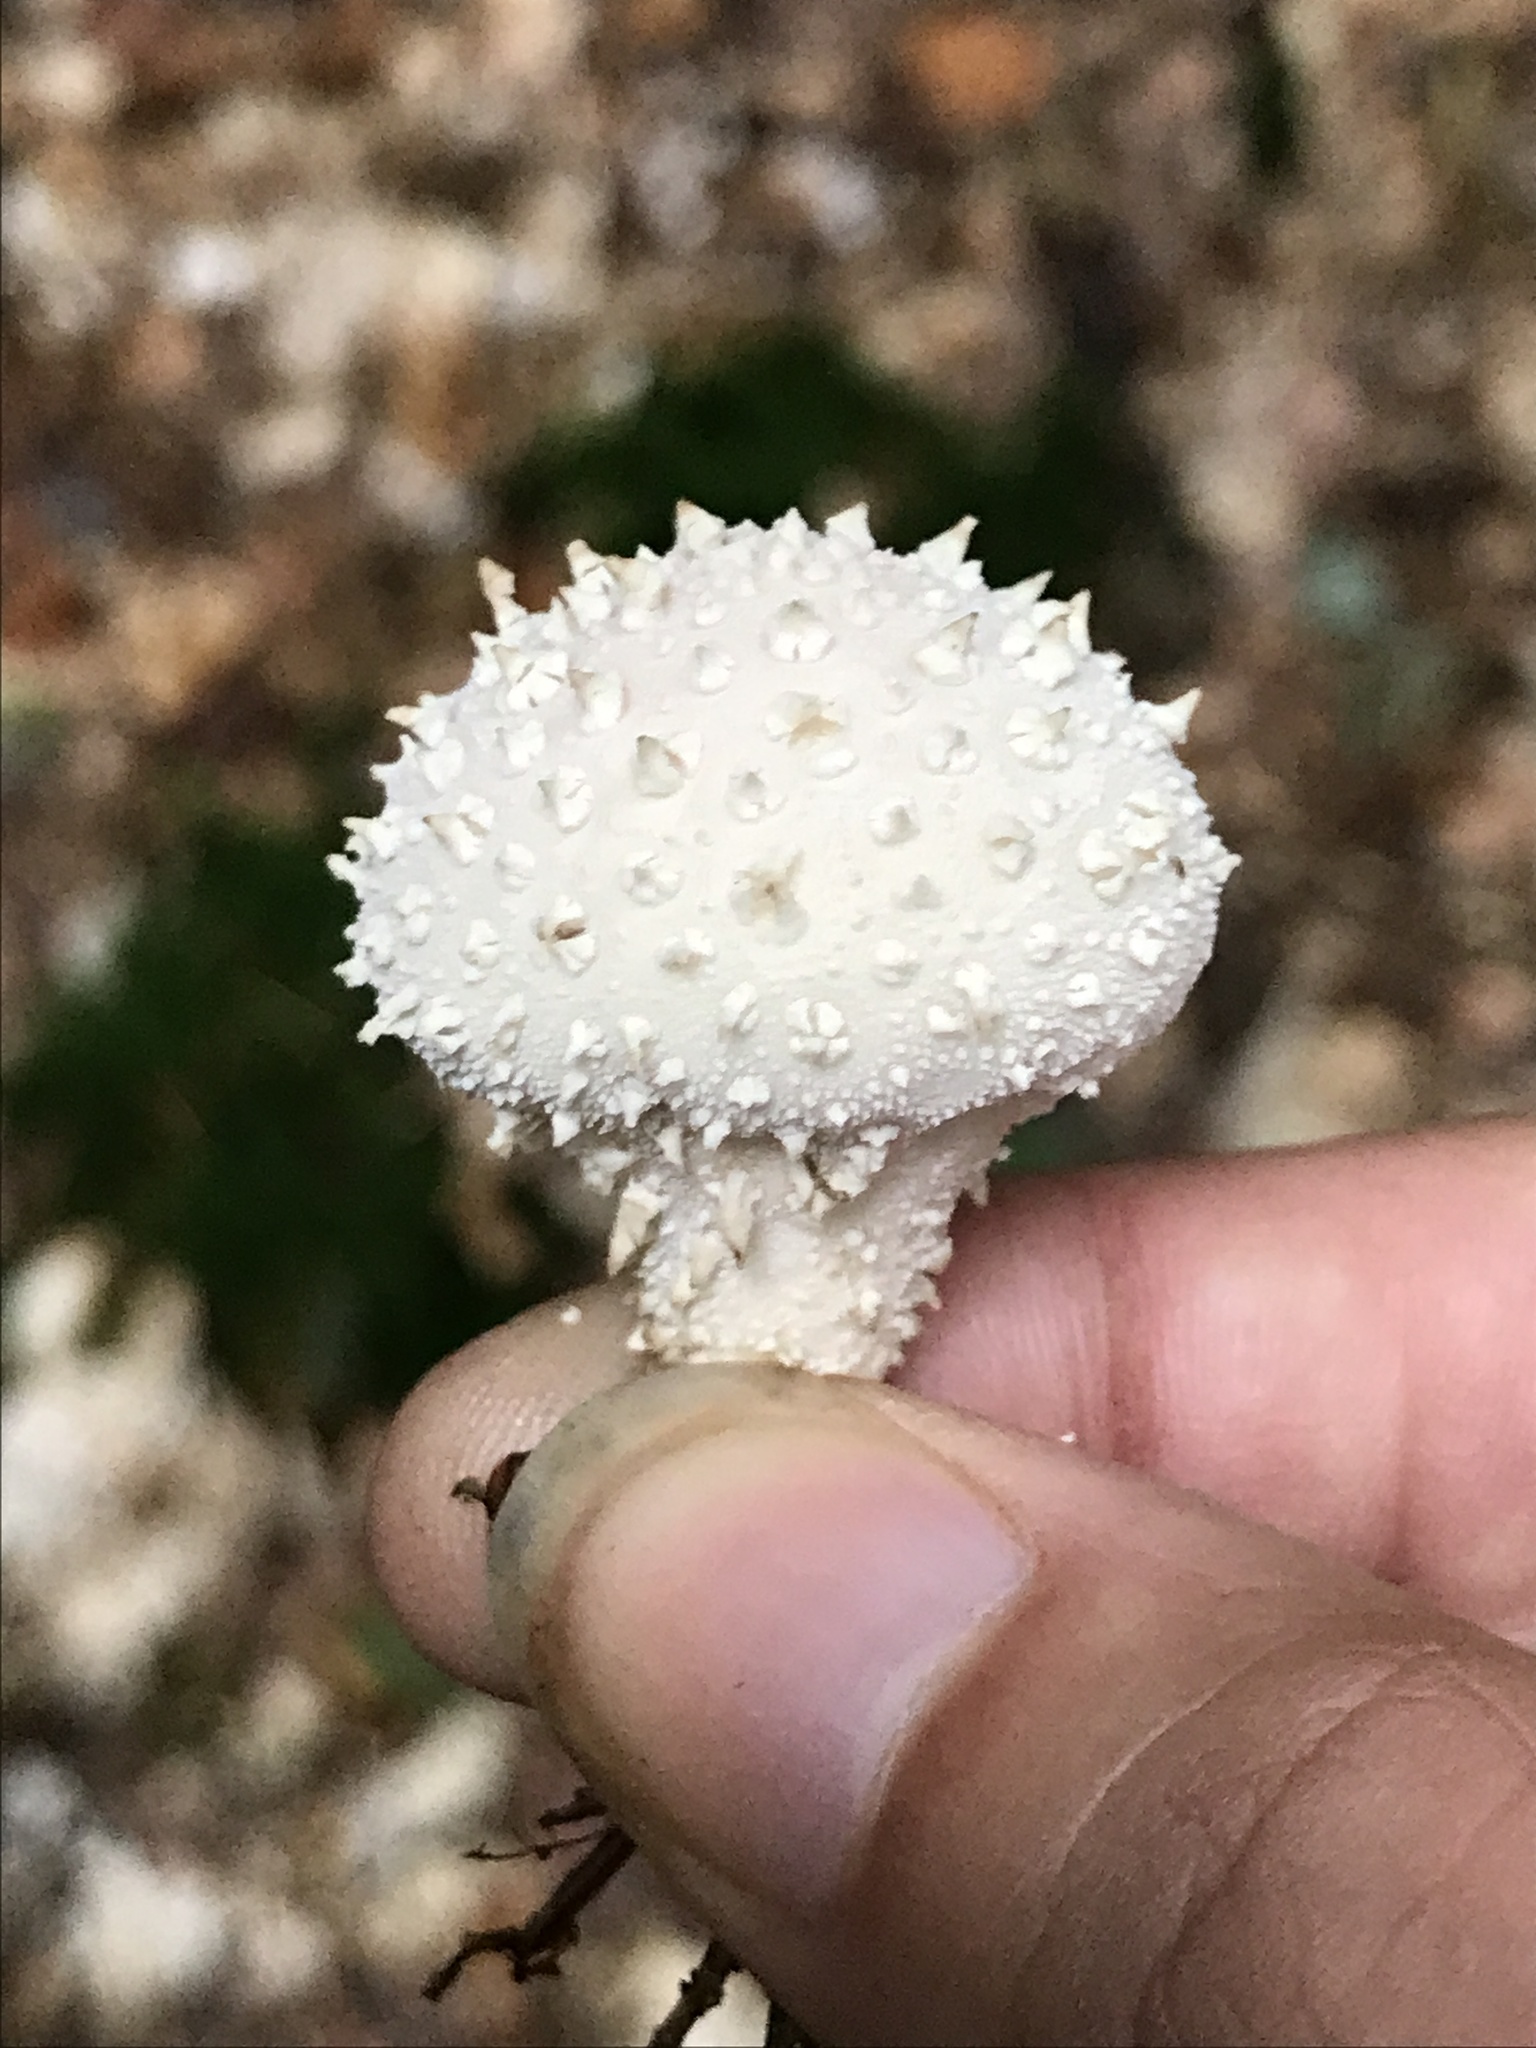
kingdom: Fungi
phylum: Basidiomycota
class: Agaricomycetes
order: Agaricales
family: Lycoperdaceae
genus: Lycoperdon
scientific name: Lycoperdon perlatum
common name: Common puffball
